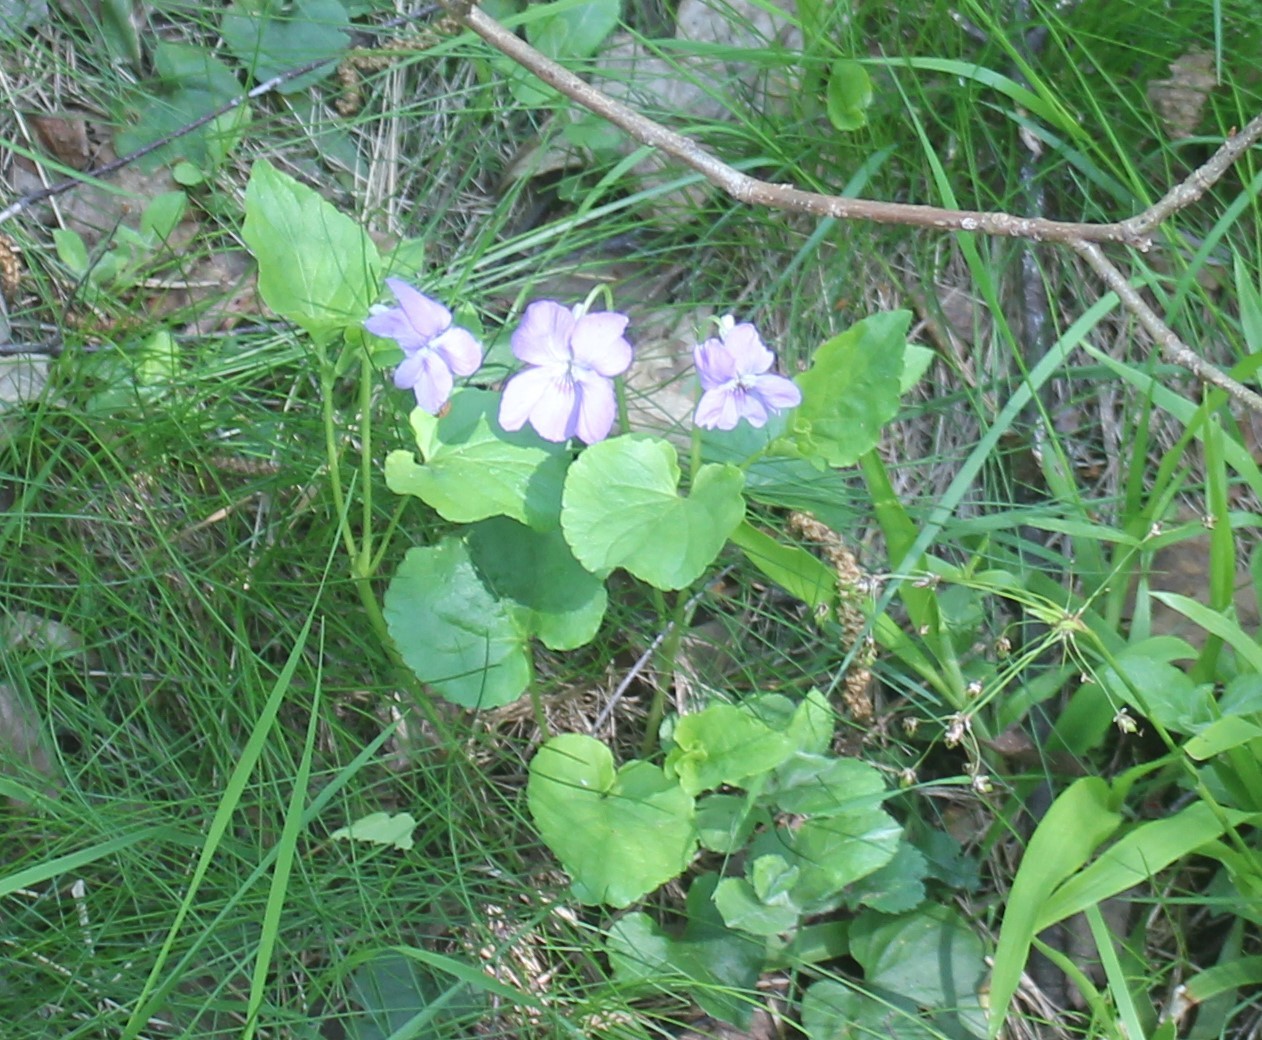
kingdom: Plantae
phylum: Tracheophyta
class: Magnoliopsida
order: Malpighiales
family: Violaceae
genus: Viola
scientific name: Viola riviniana
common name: Common dog-violet
